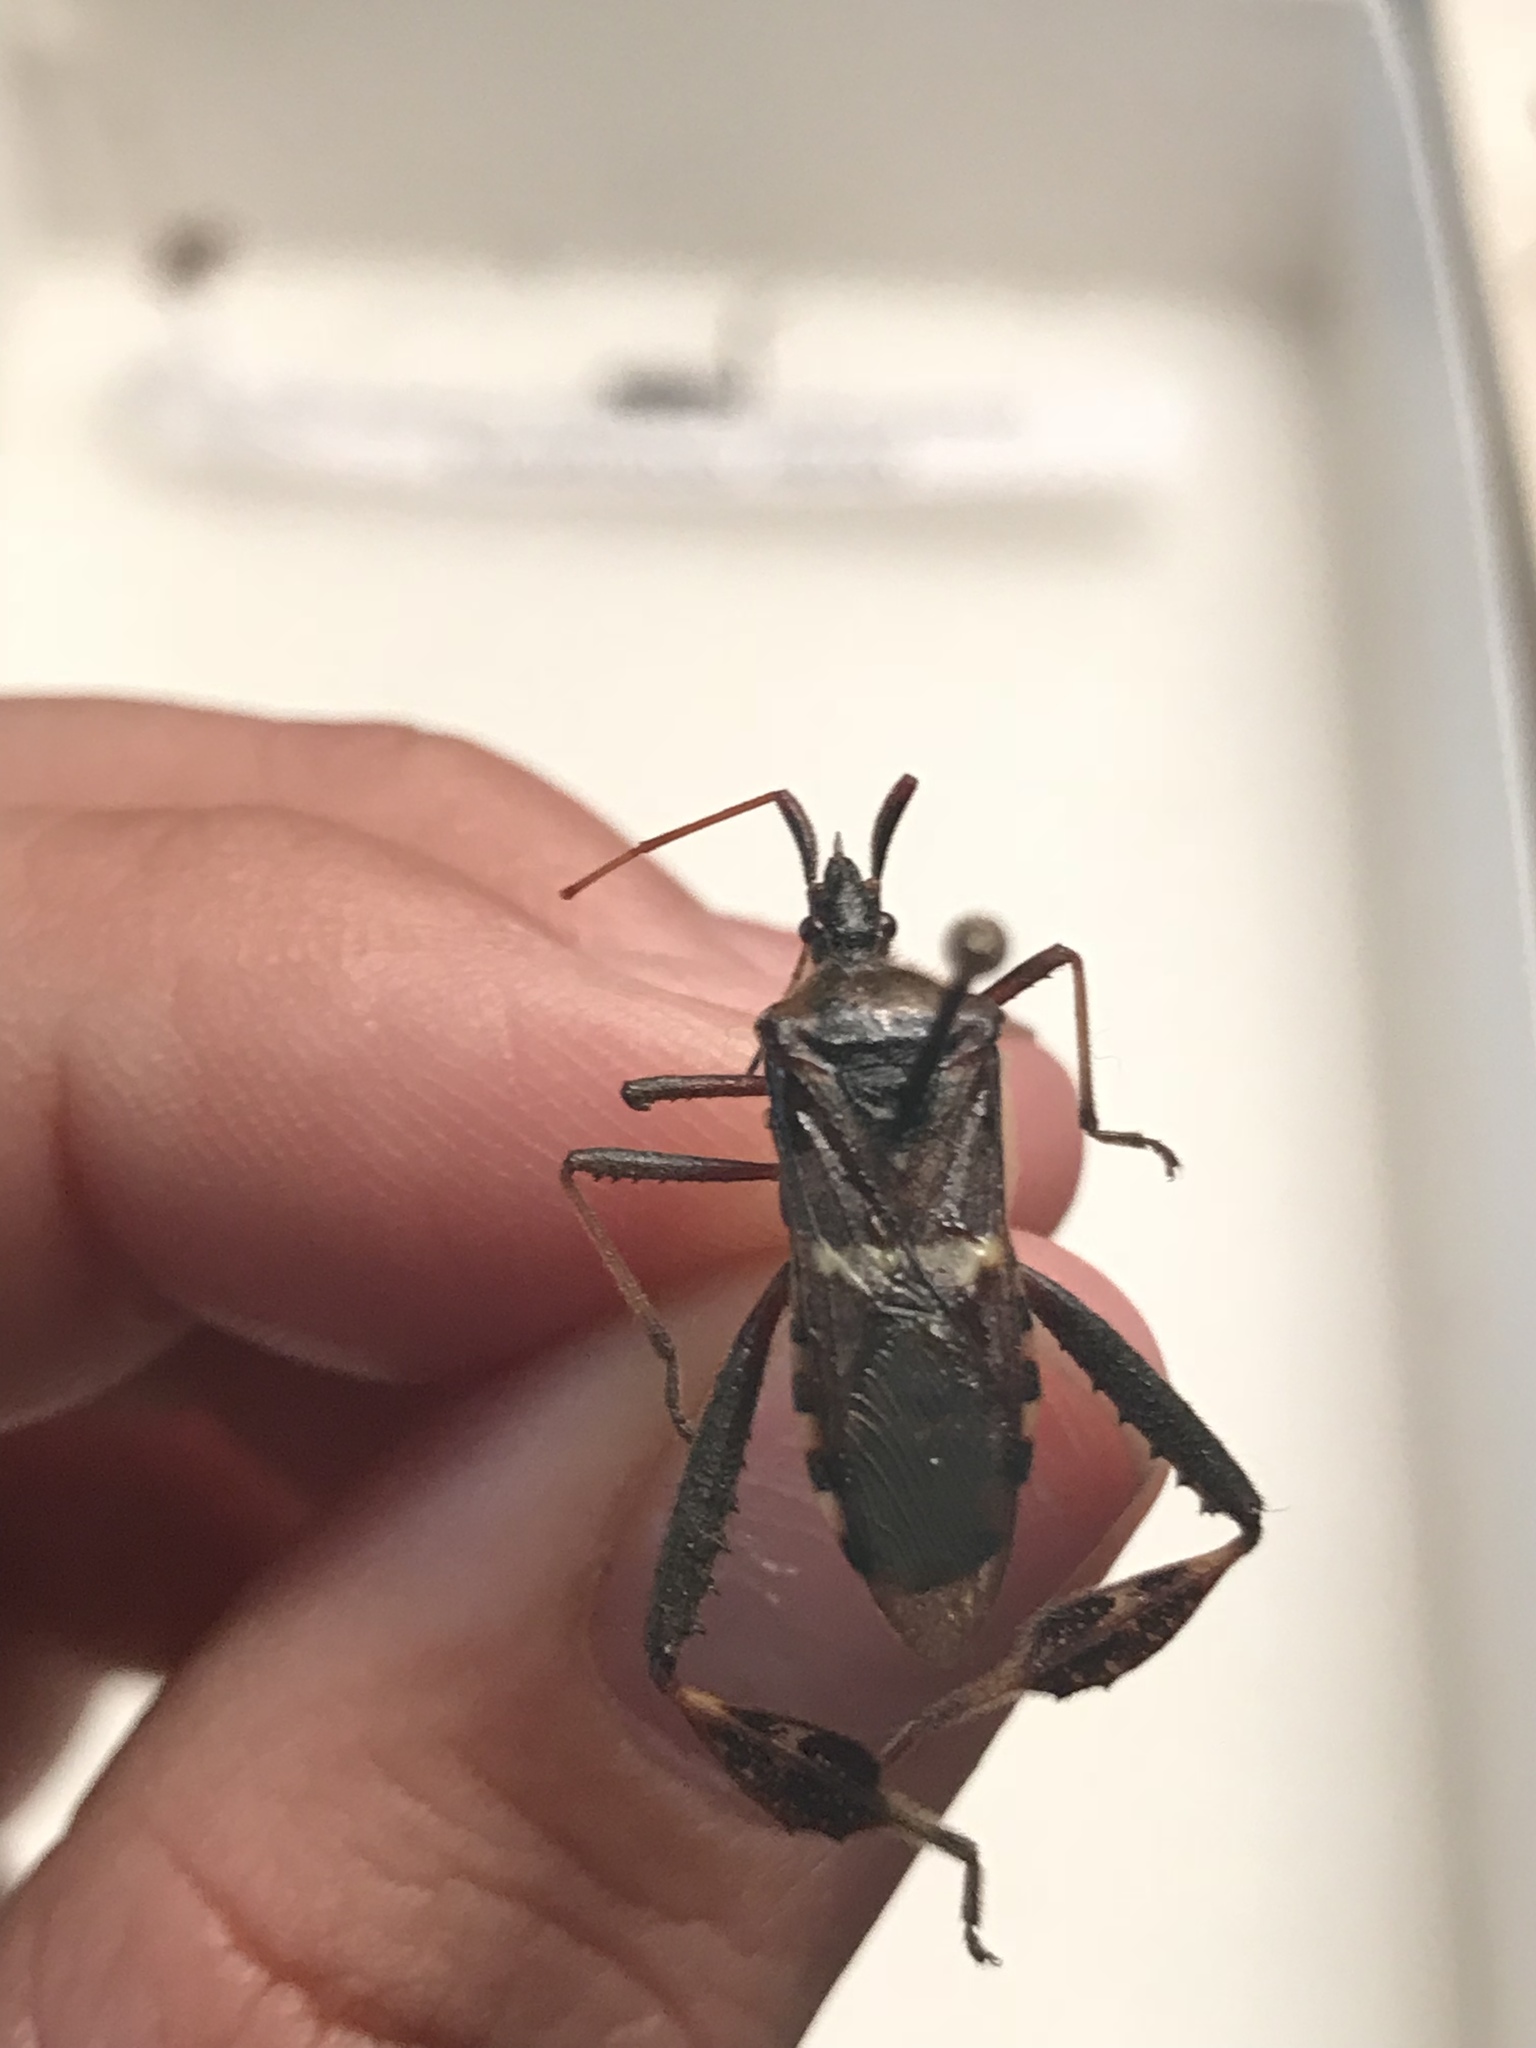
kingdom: Animalia
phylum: Arthropoda
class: Insecta
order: Hemiptera
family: Coreidae
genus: Leptoglossus
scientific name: Leptoglossus clypealis
